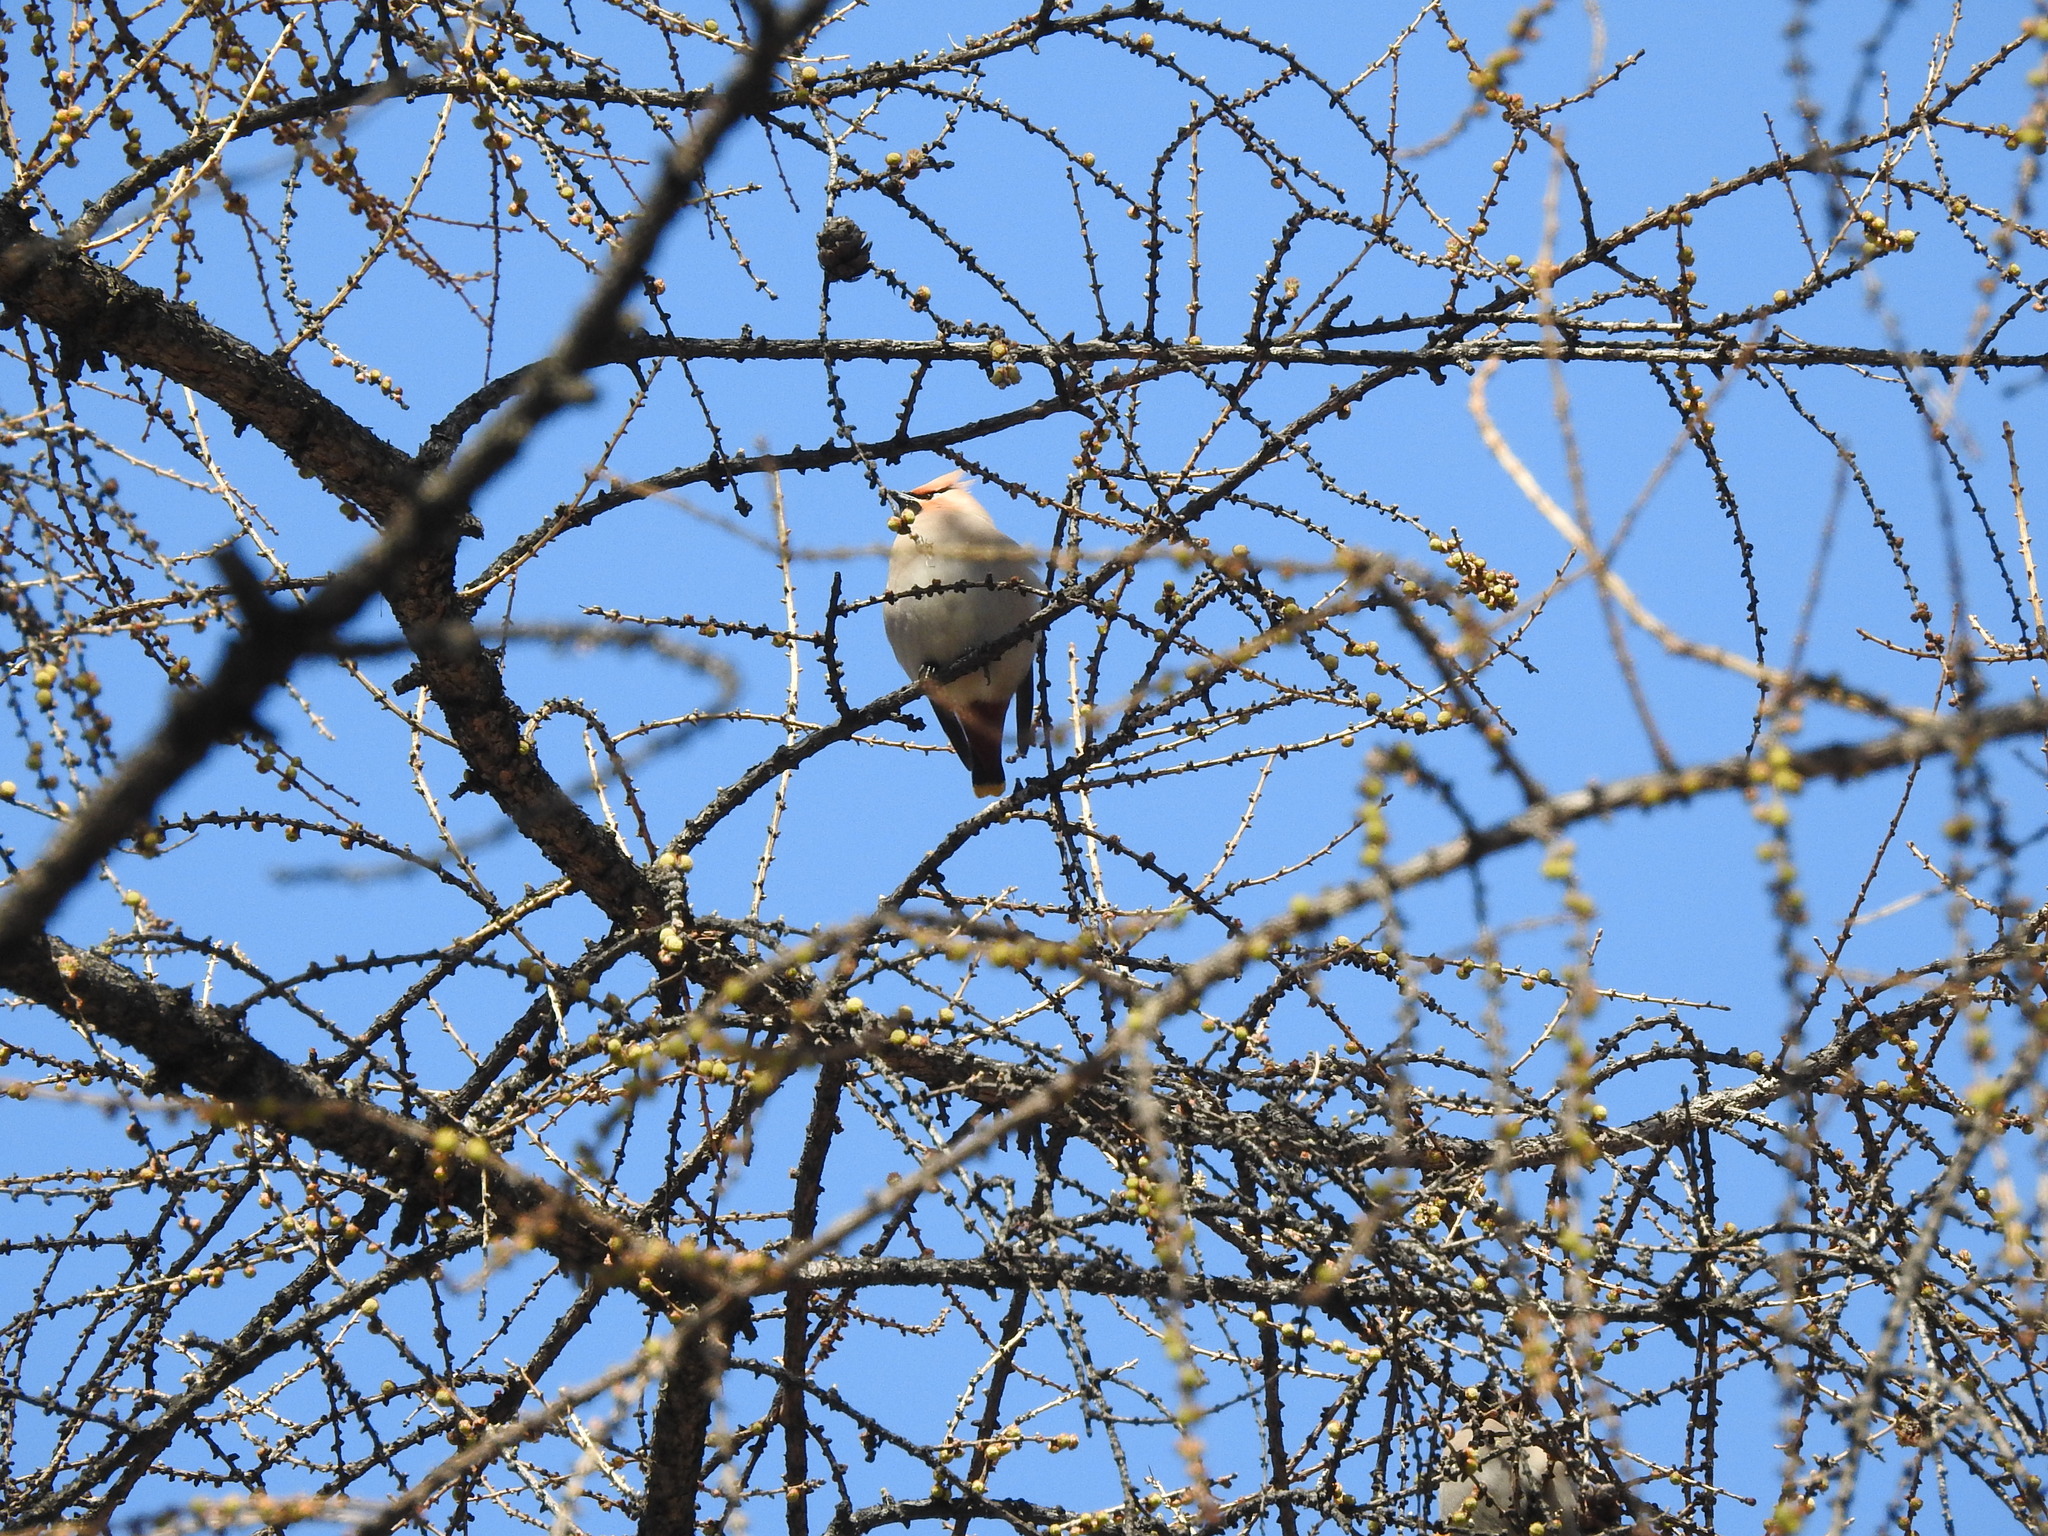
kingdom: Animalia
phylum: Chordata
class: Aves
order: Passeriformes
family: Bombycillidae
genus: Bombycilla
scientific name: Bombycilla garrulus
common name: Bohemian waxwing
